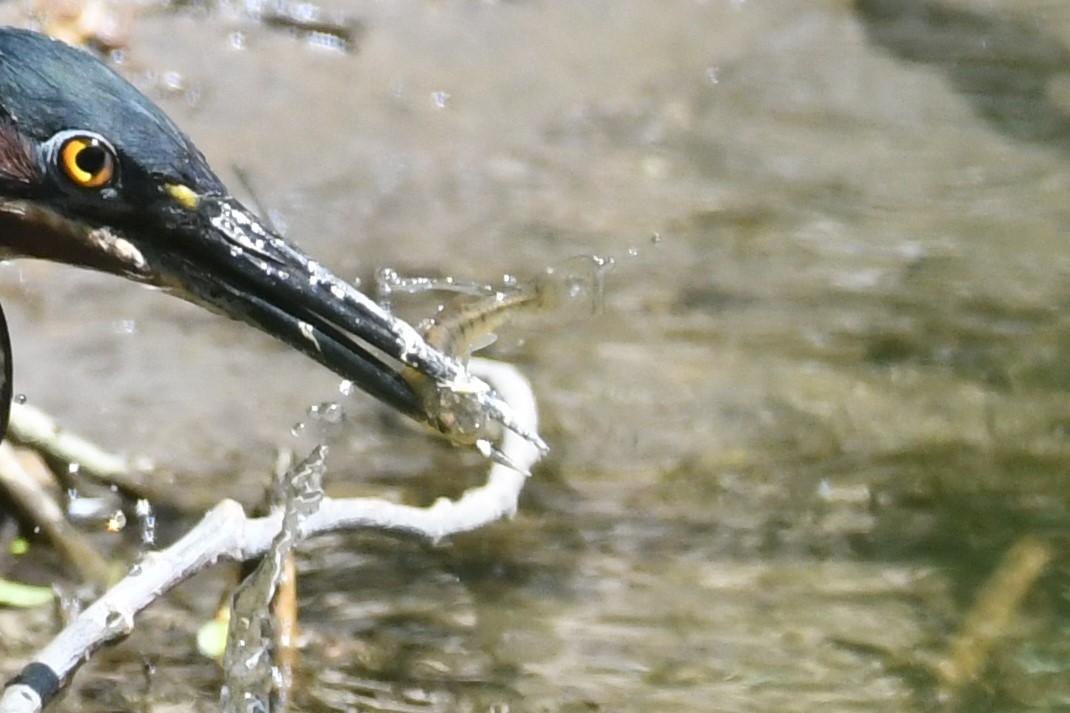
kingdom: Animalia
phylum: Chordata
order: Cyprinodontiformes
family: Fundulidae
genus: Fundulus
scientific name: Fundulus diaphanus
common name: Banded killifish
